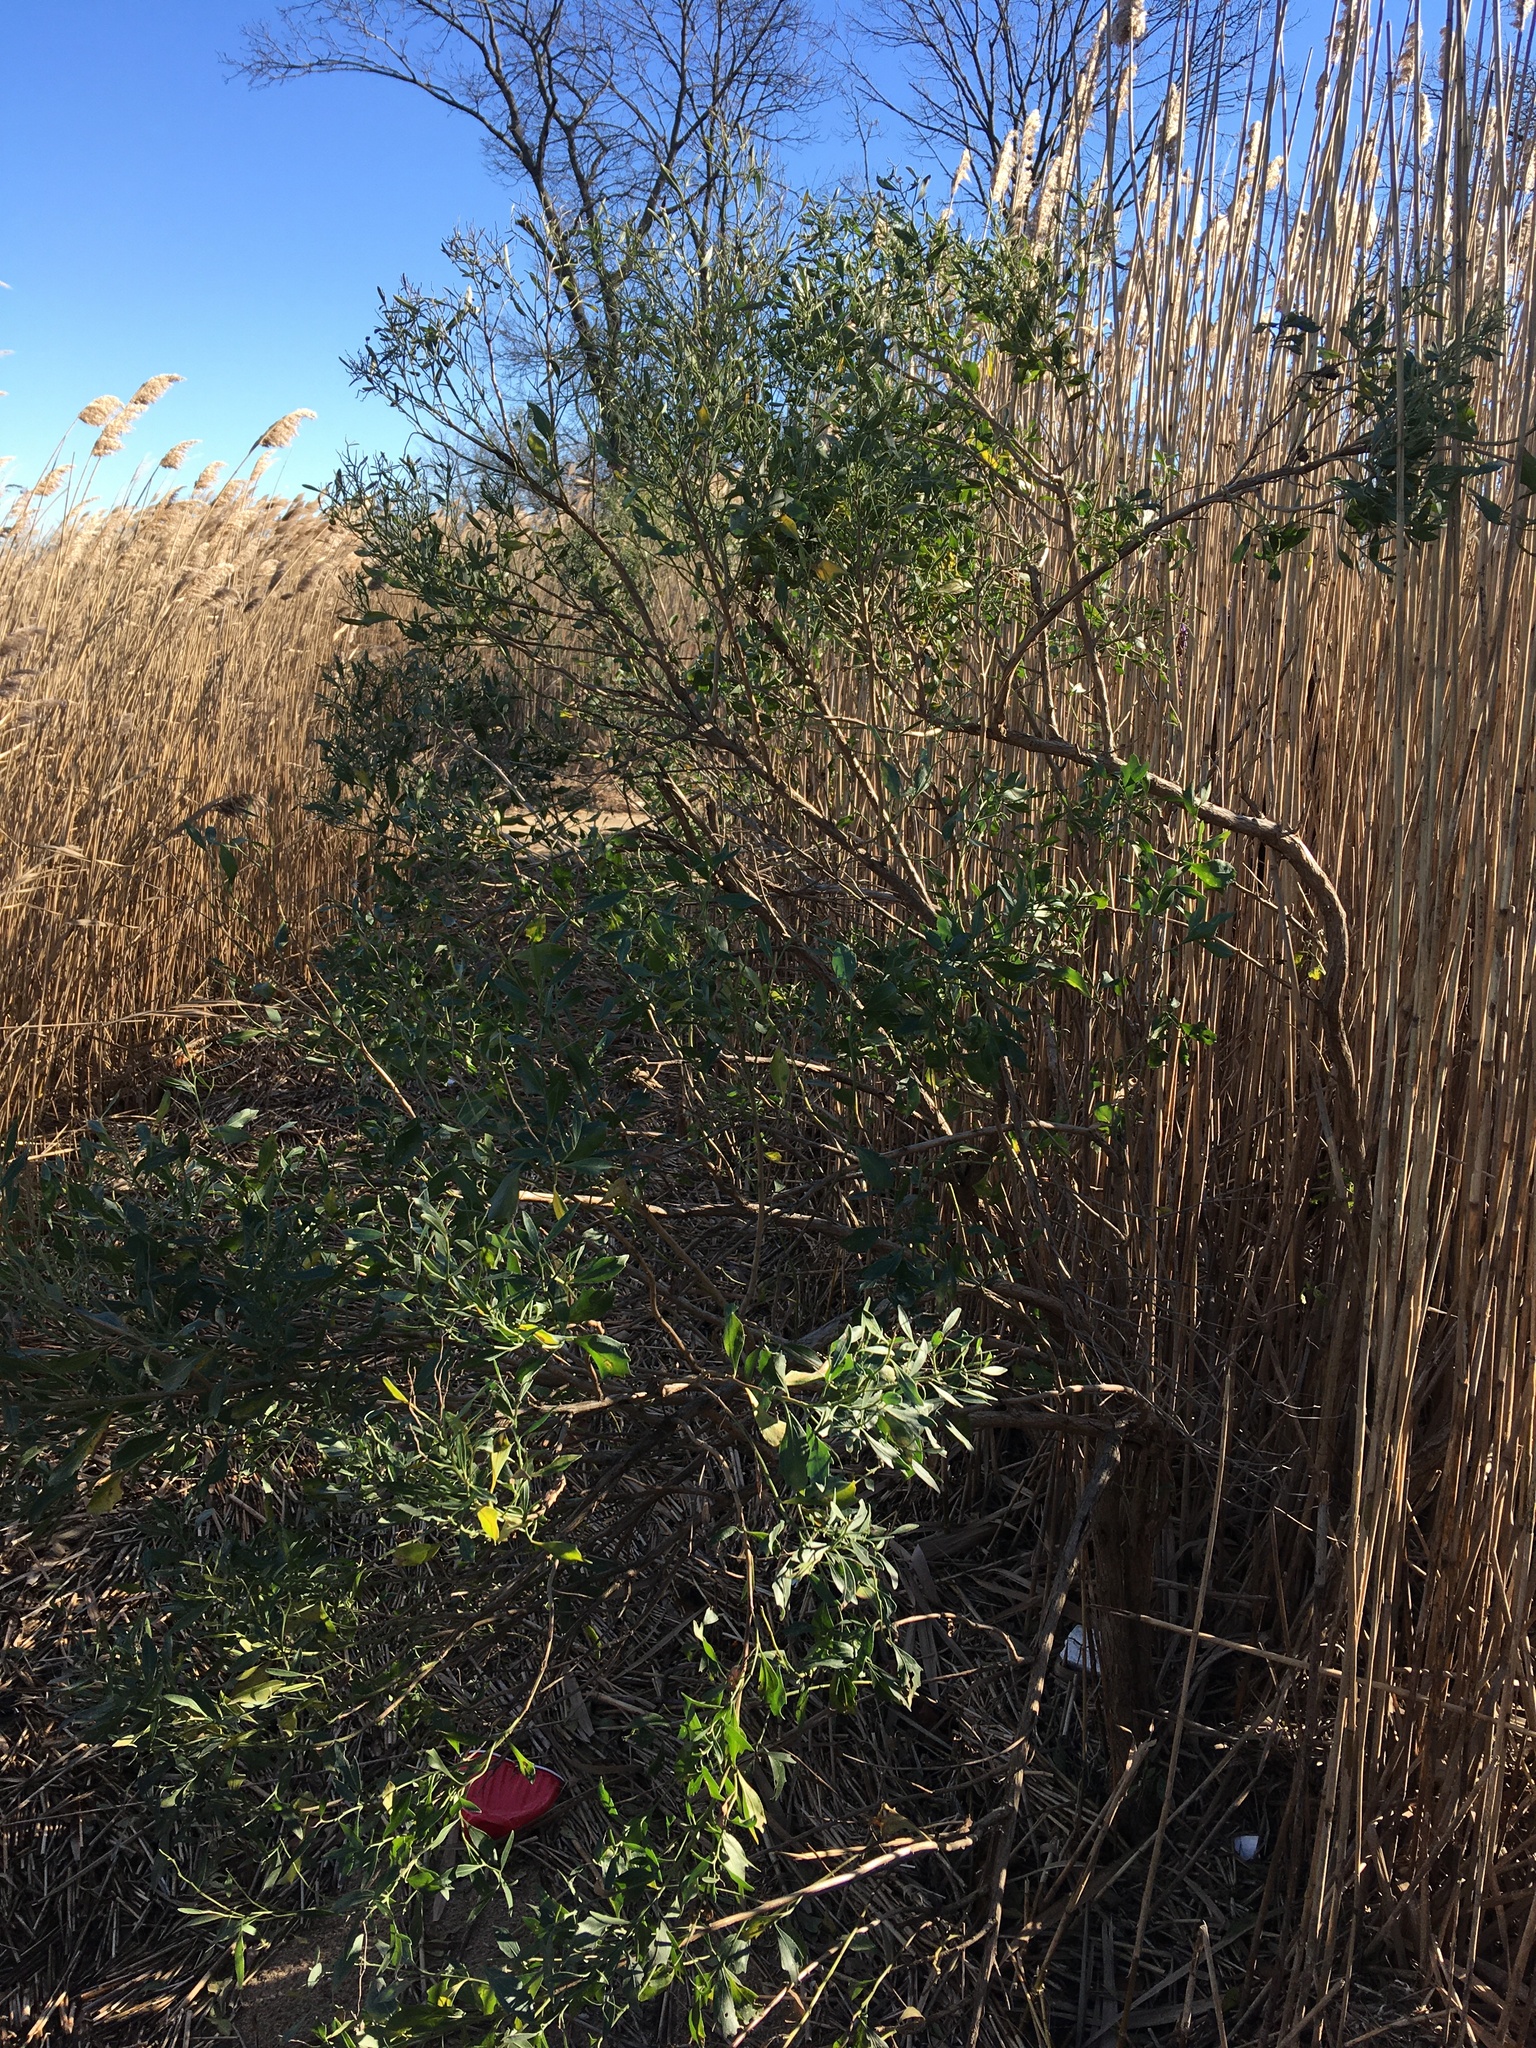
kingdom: Plantae
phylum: Tracheophyta
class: Magnoliopsida
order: Asterales
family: Asteraceae
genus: Baccharis
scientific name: Baccharis halimifolia
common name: Eastern baccharis
